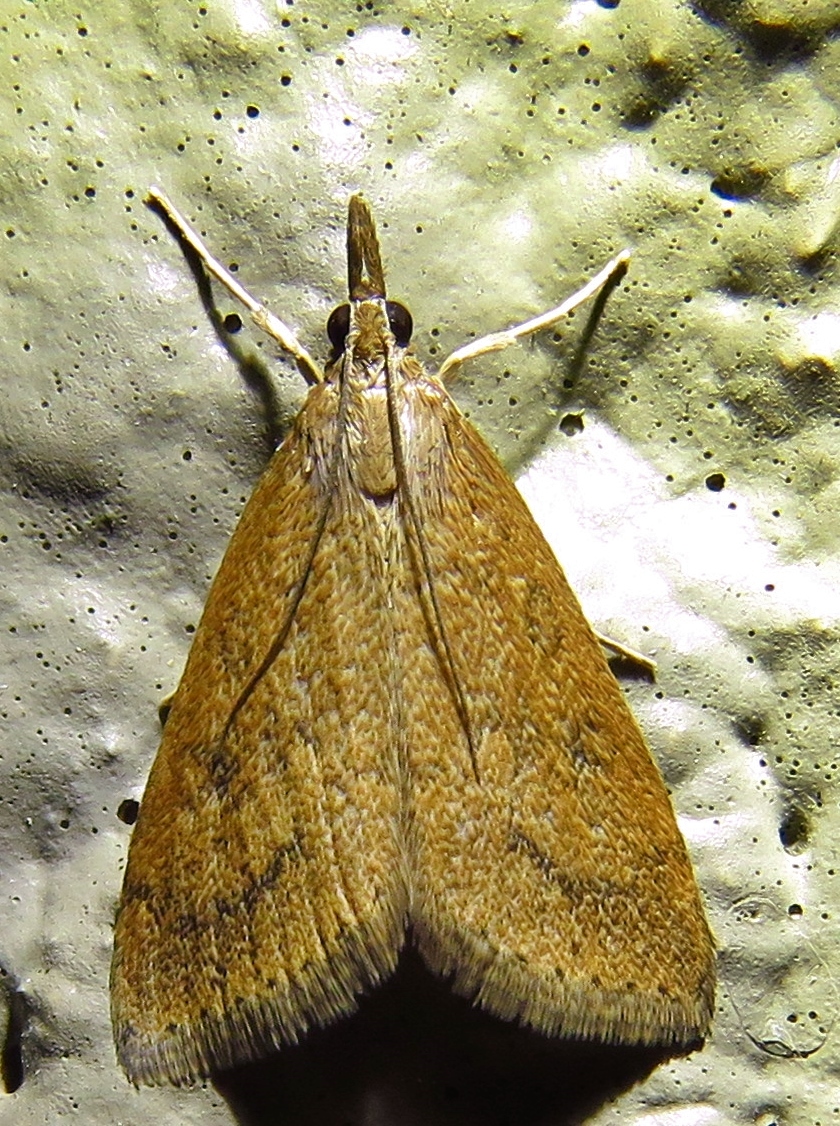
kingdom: Animalia
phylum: Arthropoda
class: Insecta
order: Lepidoptera
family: Crambidae
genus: Udea
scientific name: Udea rubigalis
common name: Celery leaftier moth
